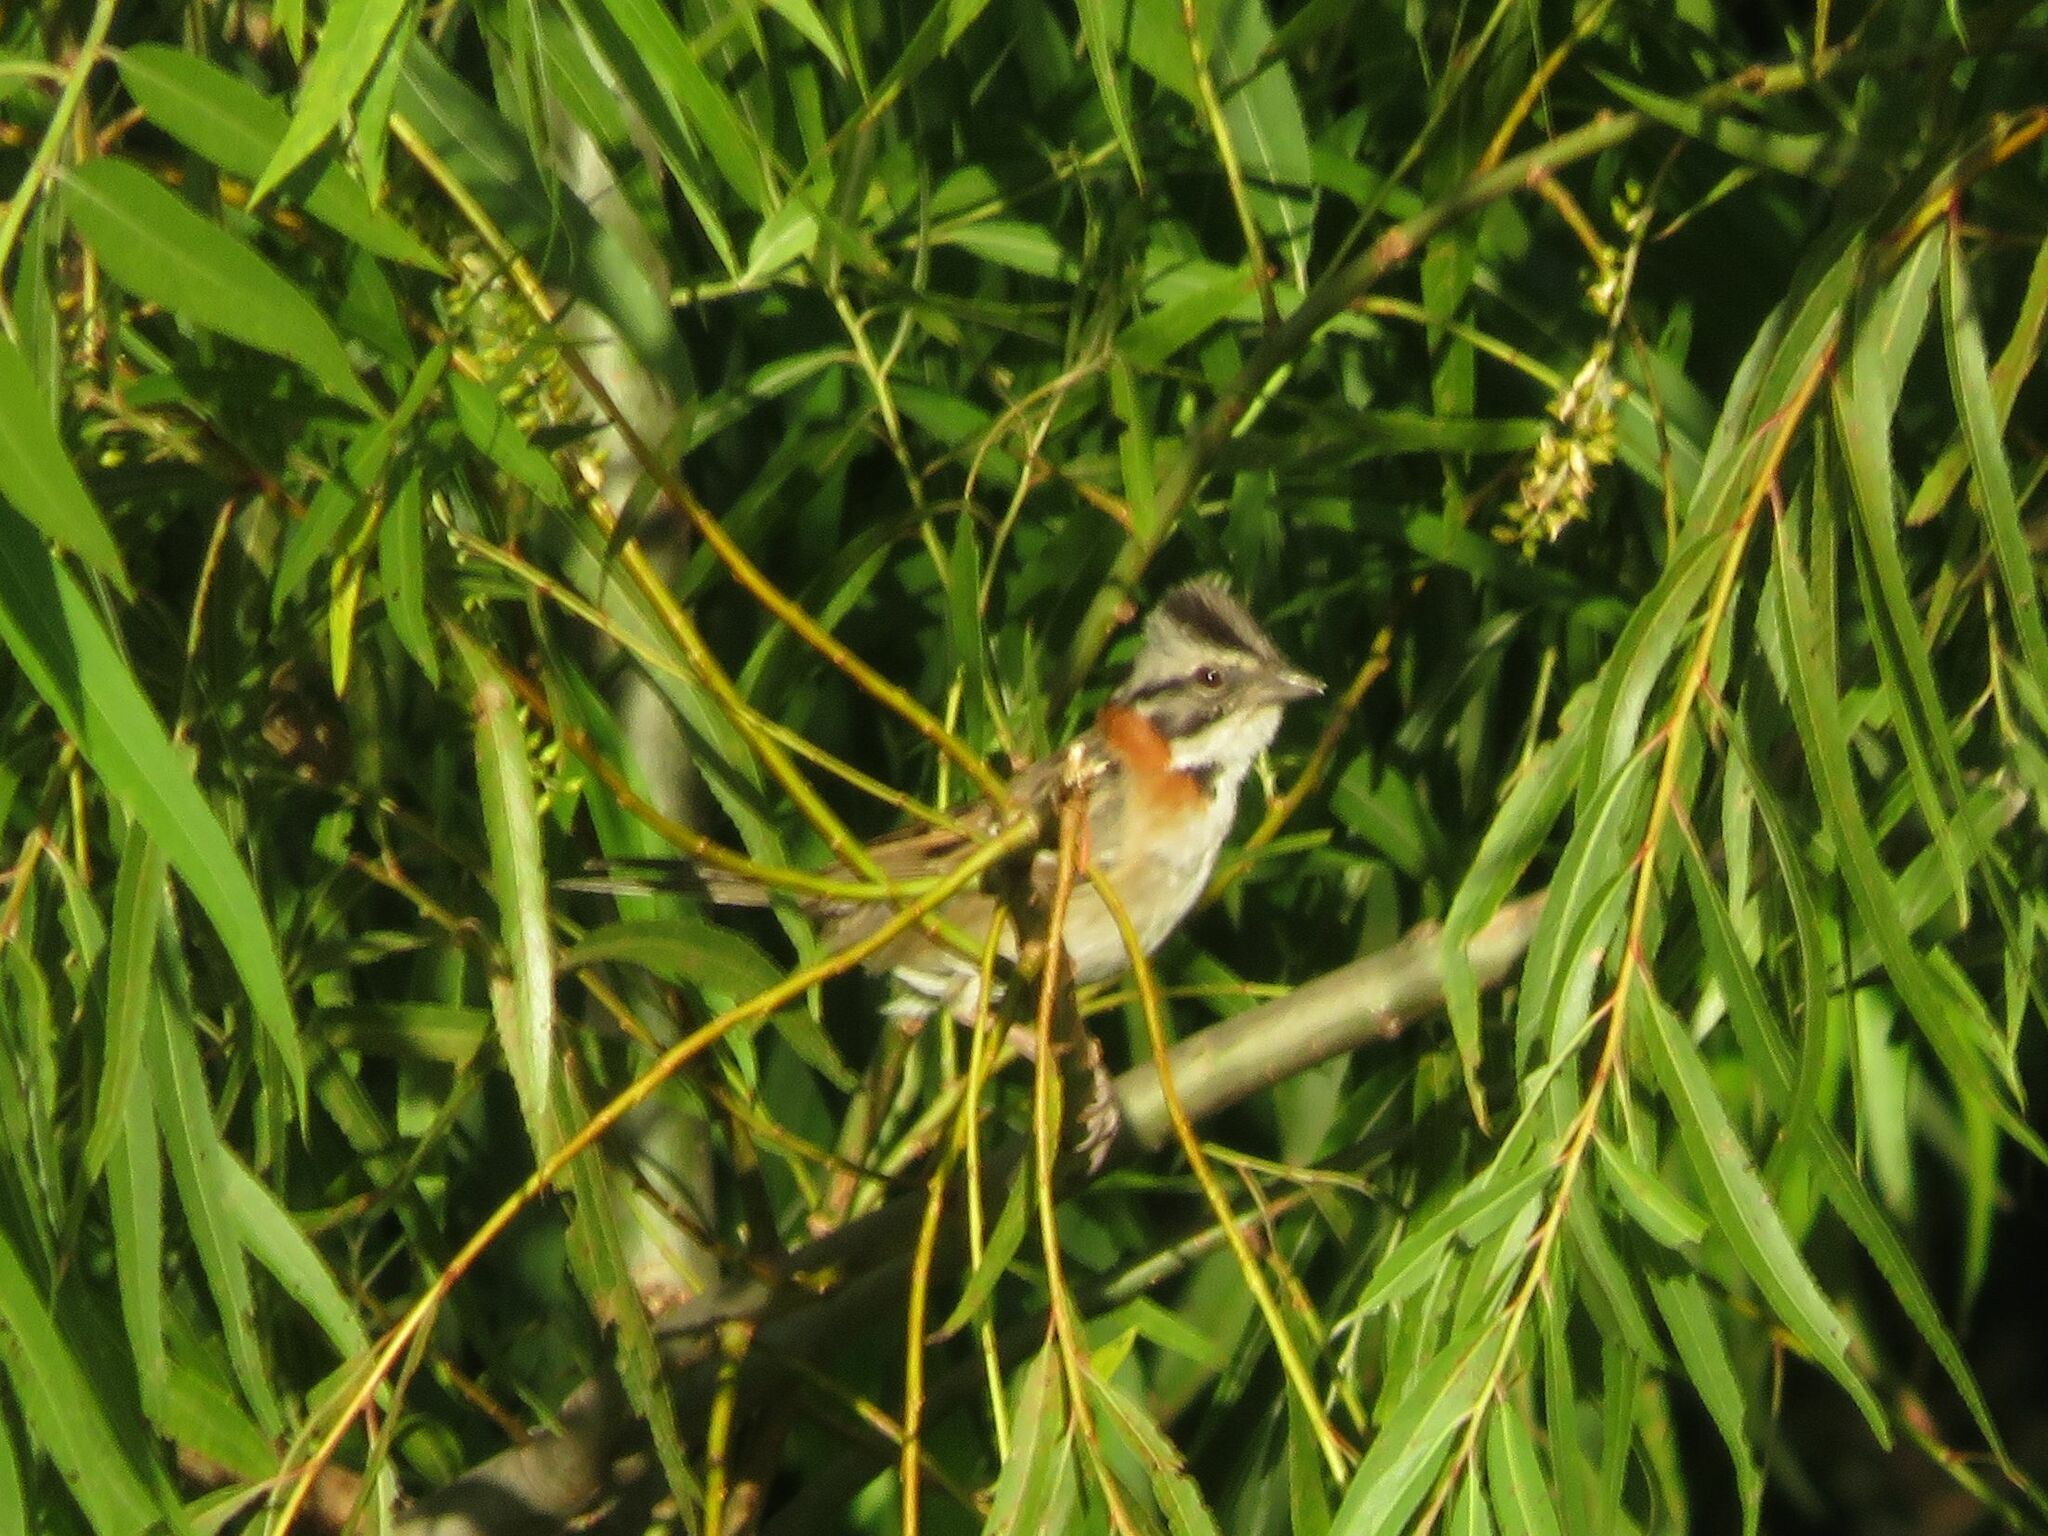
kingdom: Animalia
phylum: Chordata
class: Aves
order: Passeriformes
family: Passerellidae
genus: Zonotrichia
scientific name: Zonotrichia capensis
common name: Rufous-collared sparrow
